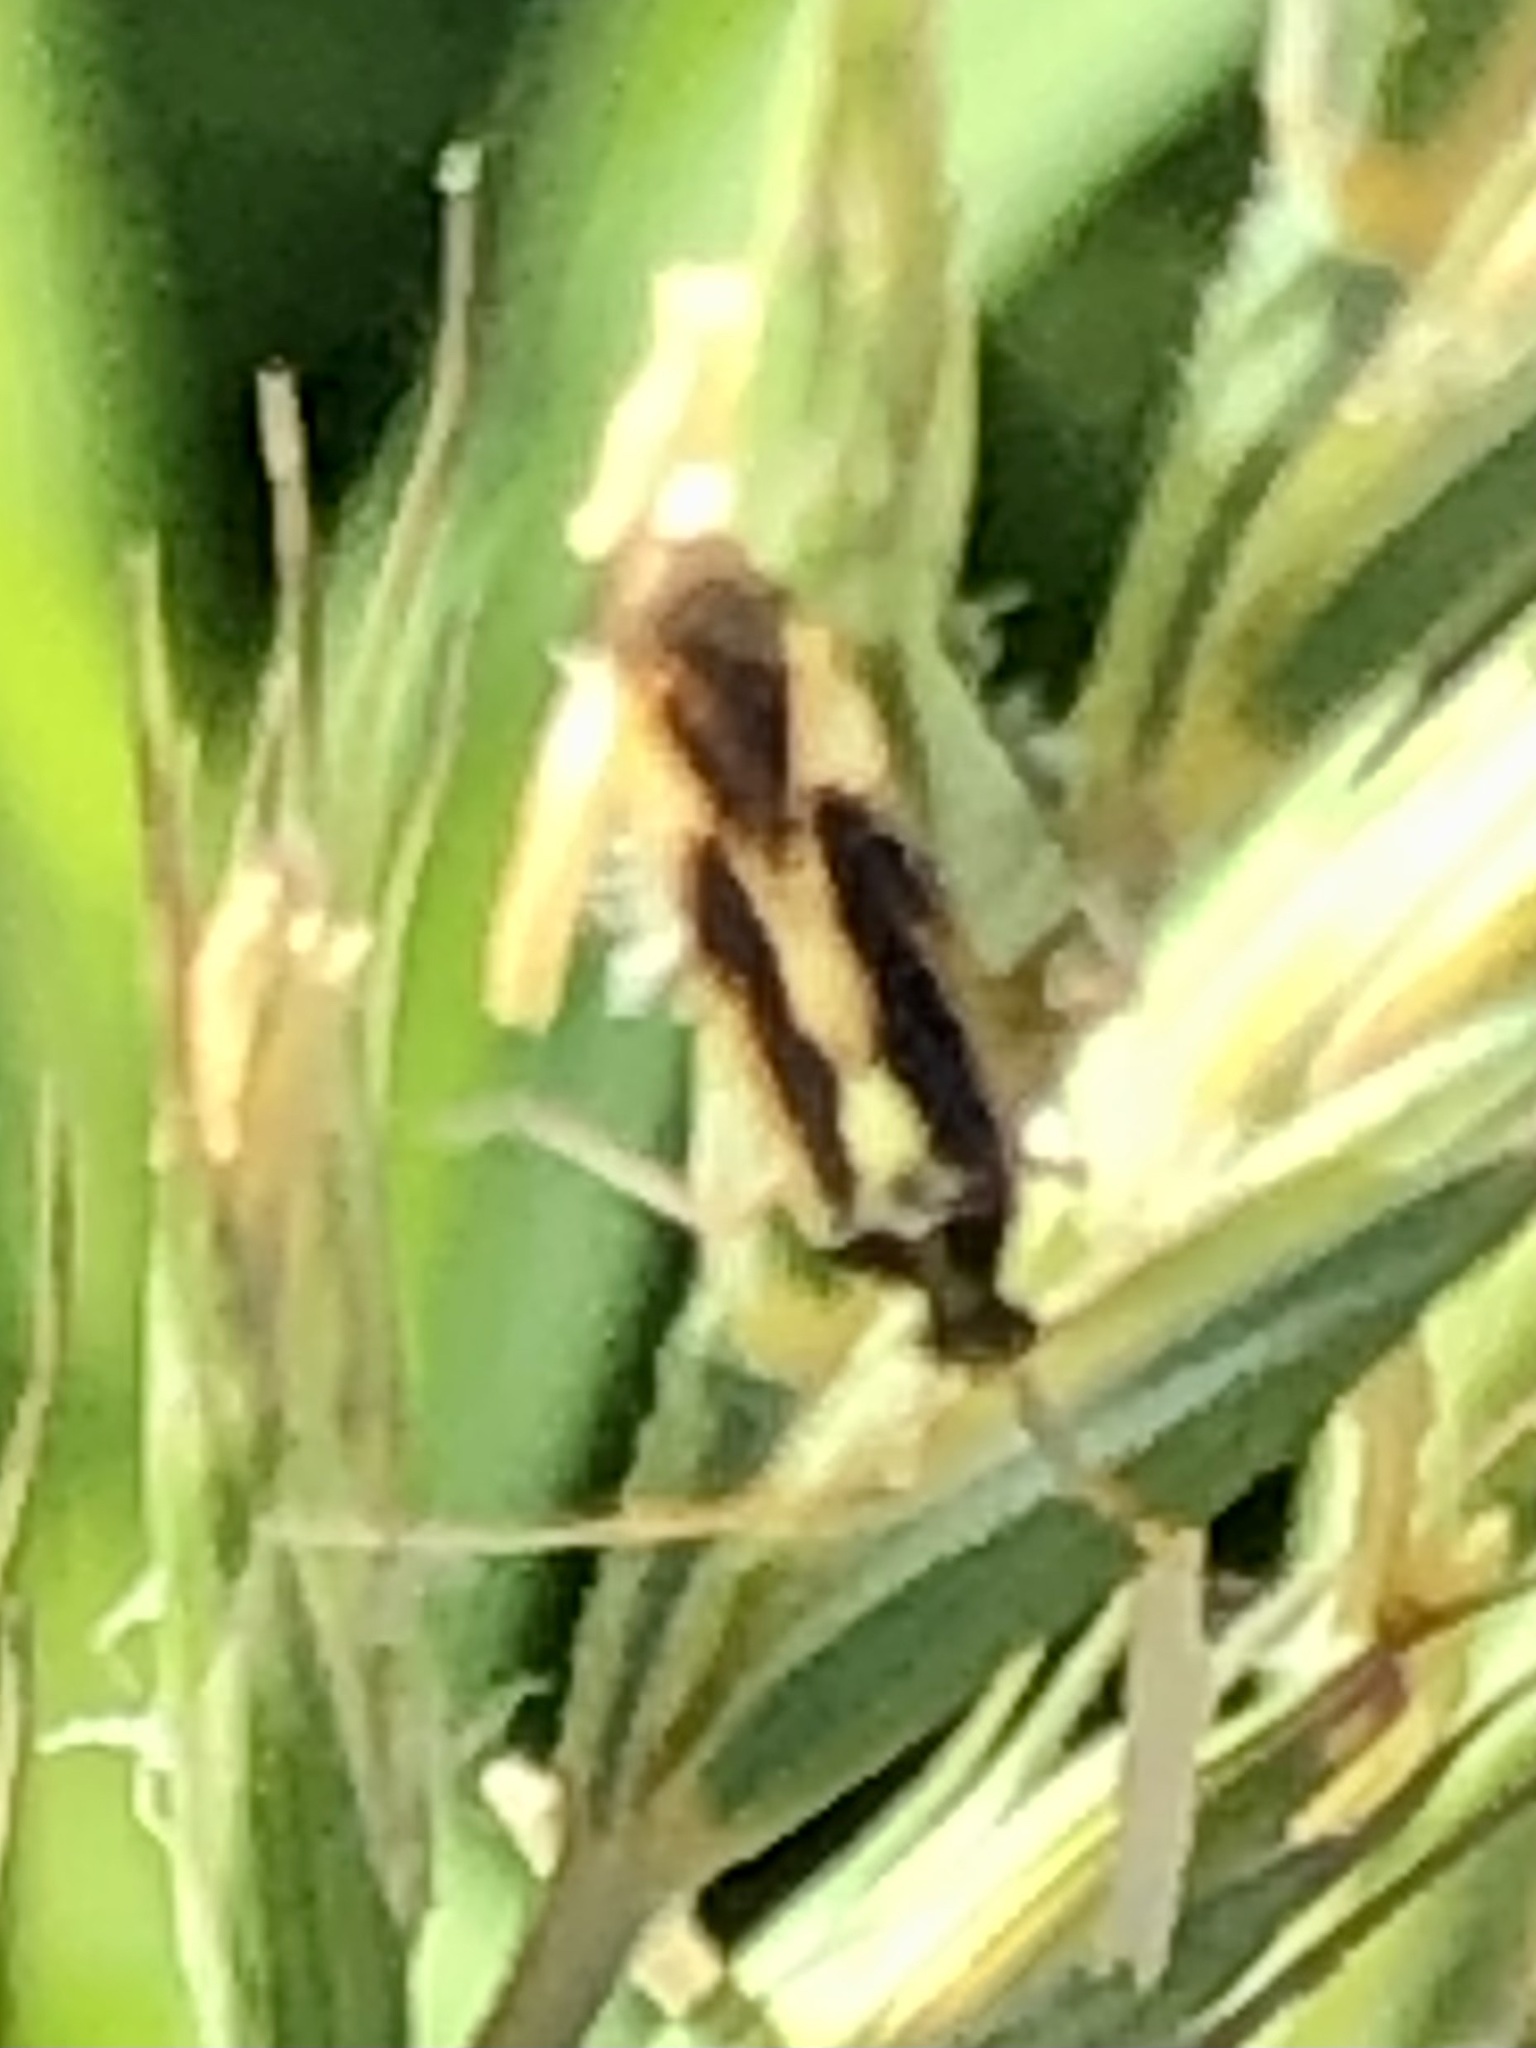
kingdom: Animalia
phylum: Arthropoda
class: Insecta
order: Hemiptera
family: Miridae
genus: Stenotus
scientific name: Stenotus binotatus
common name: Plant bug
